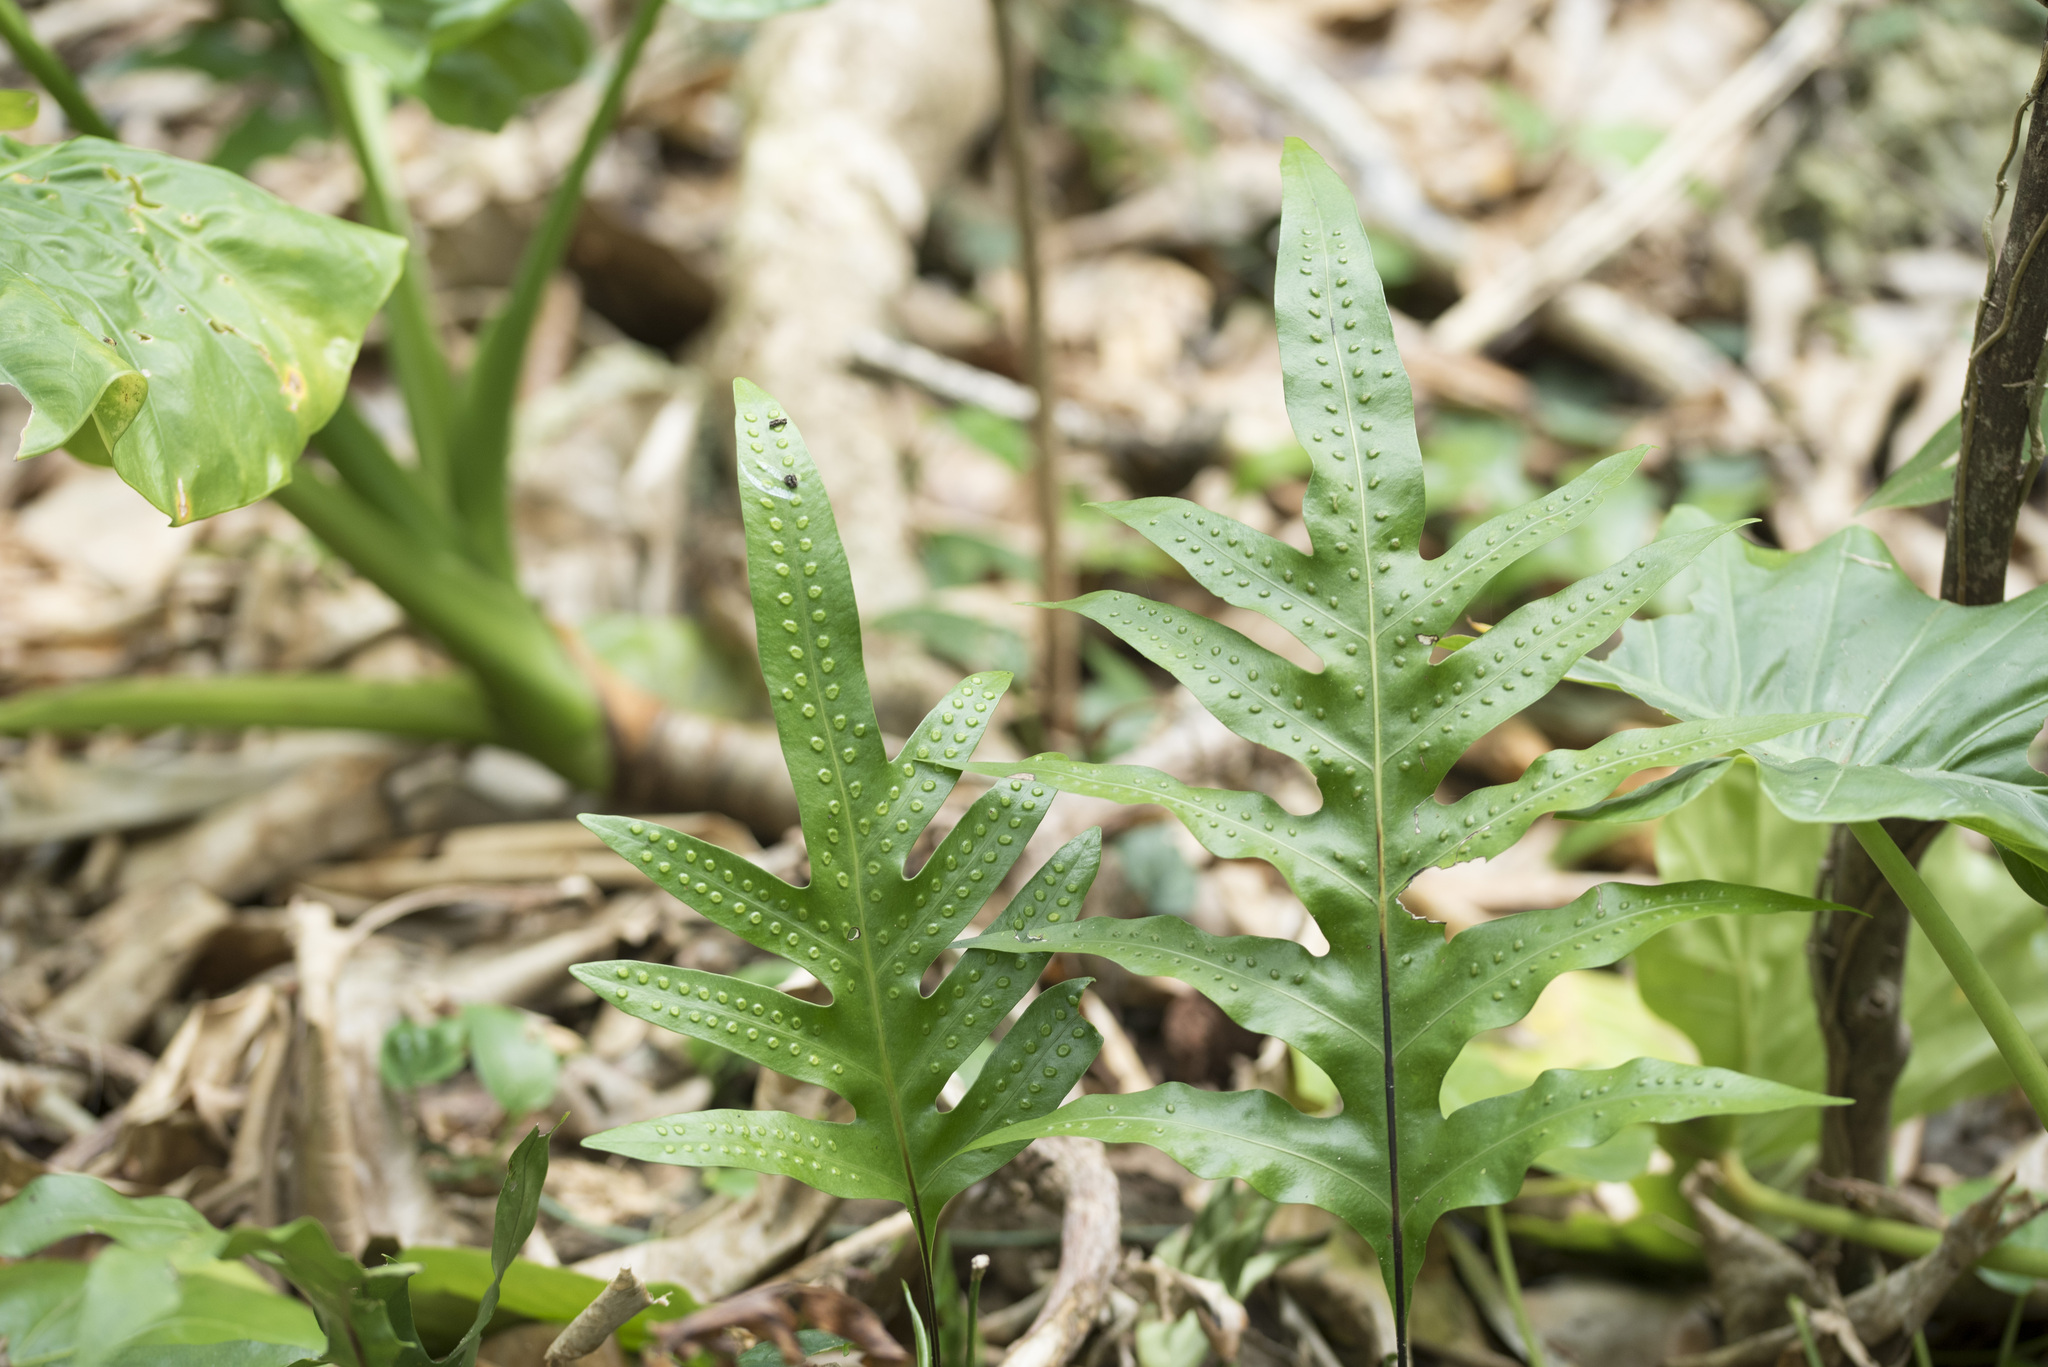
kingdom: Plantae
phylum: Tracheophyta
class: Polypodiopsida
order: Polypodiales
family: Polypodiaceae
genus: Microsorum
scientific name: Microsorum scolopendria
